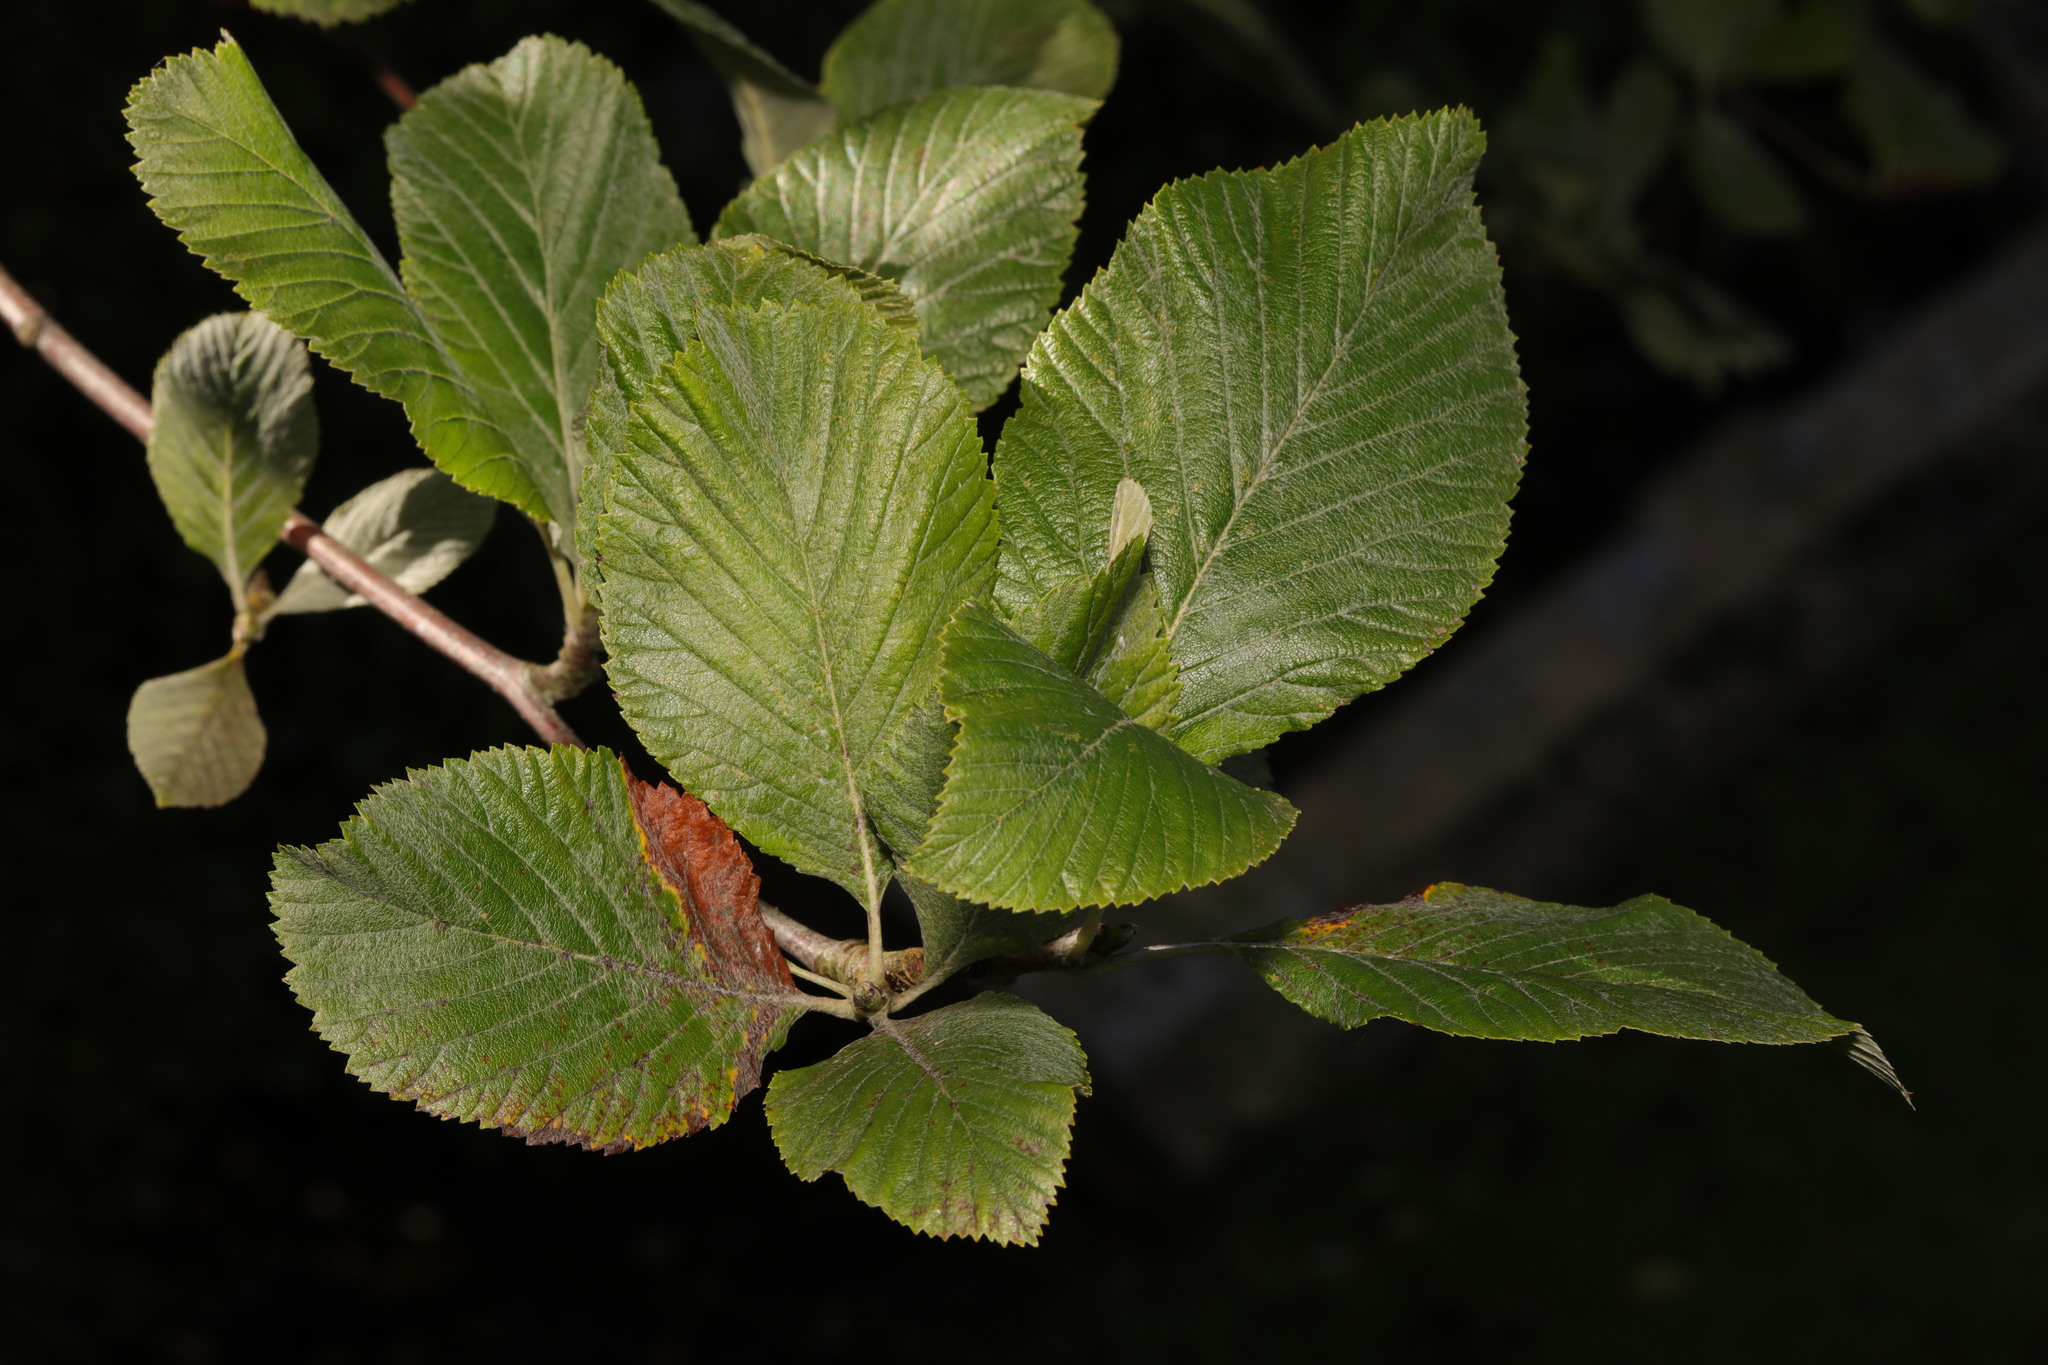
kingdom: Plantae
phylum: Tracheophyta
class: Magnoliopsida
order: Rosales
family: Rosaceae
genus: Aria
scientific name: Aria edulis
